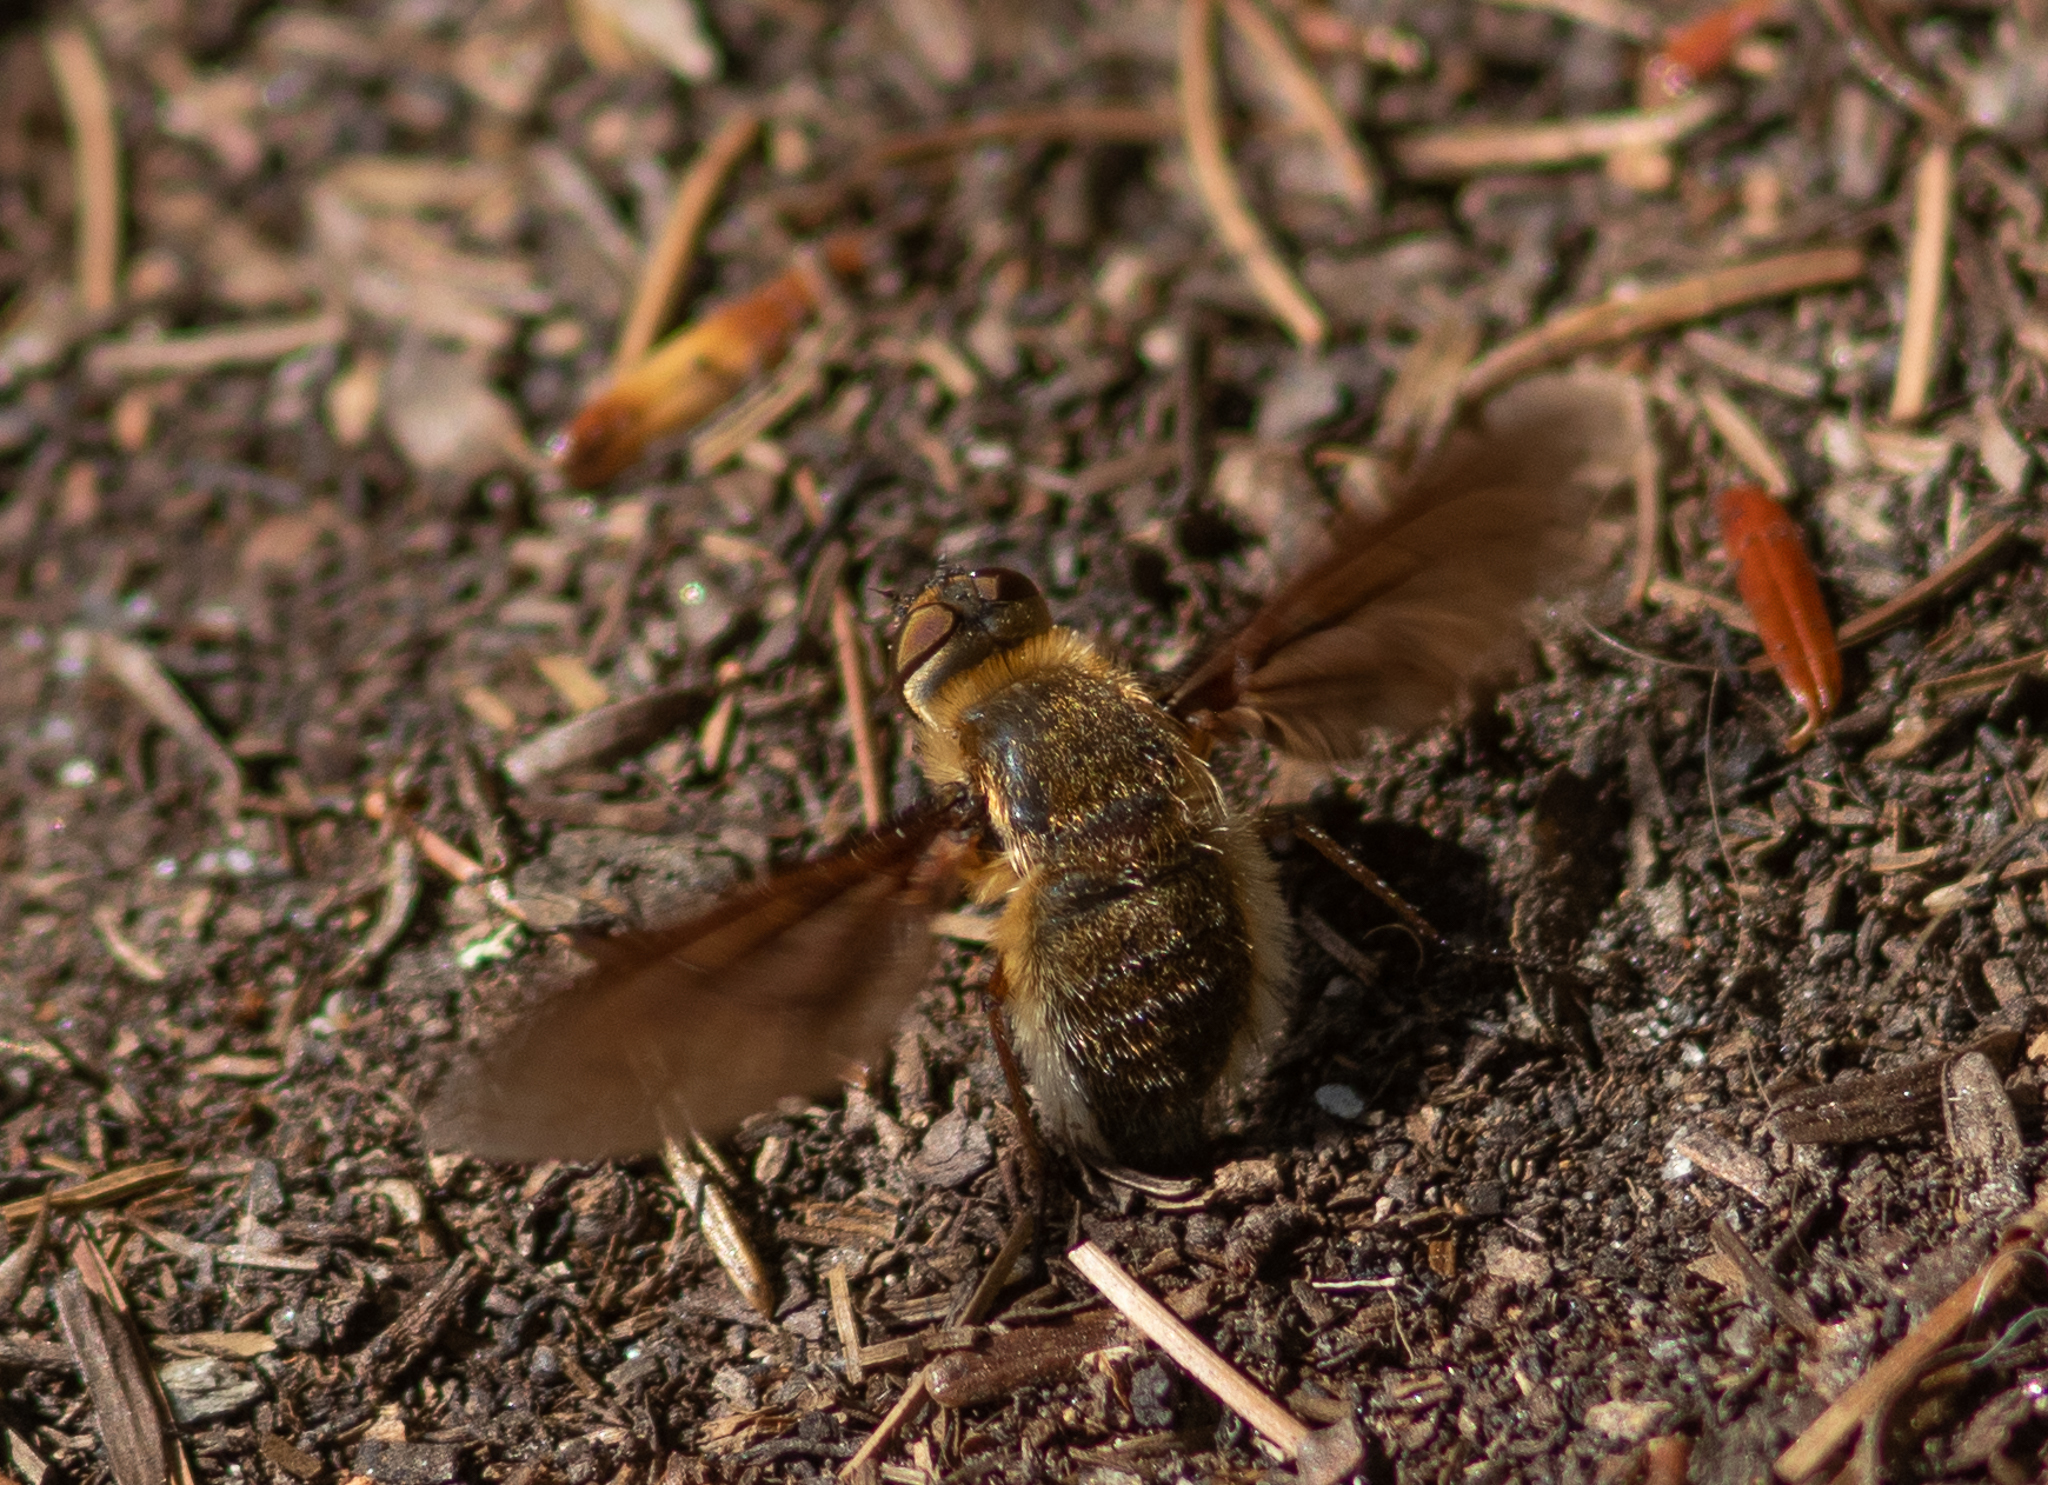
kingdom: Animalia
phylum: Arthropoda
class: Insecta
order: Diptera
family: Bombyliidae
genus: Poecilanthrax
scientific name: Poecilanthrax tegminipennis
